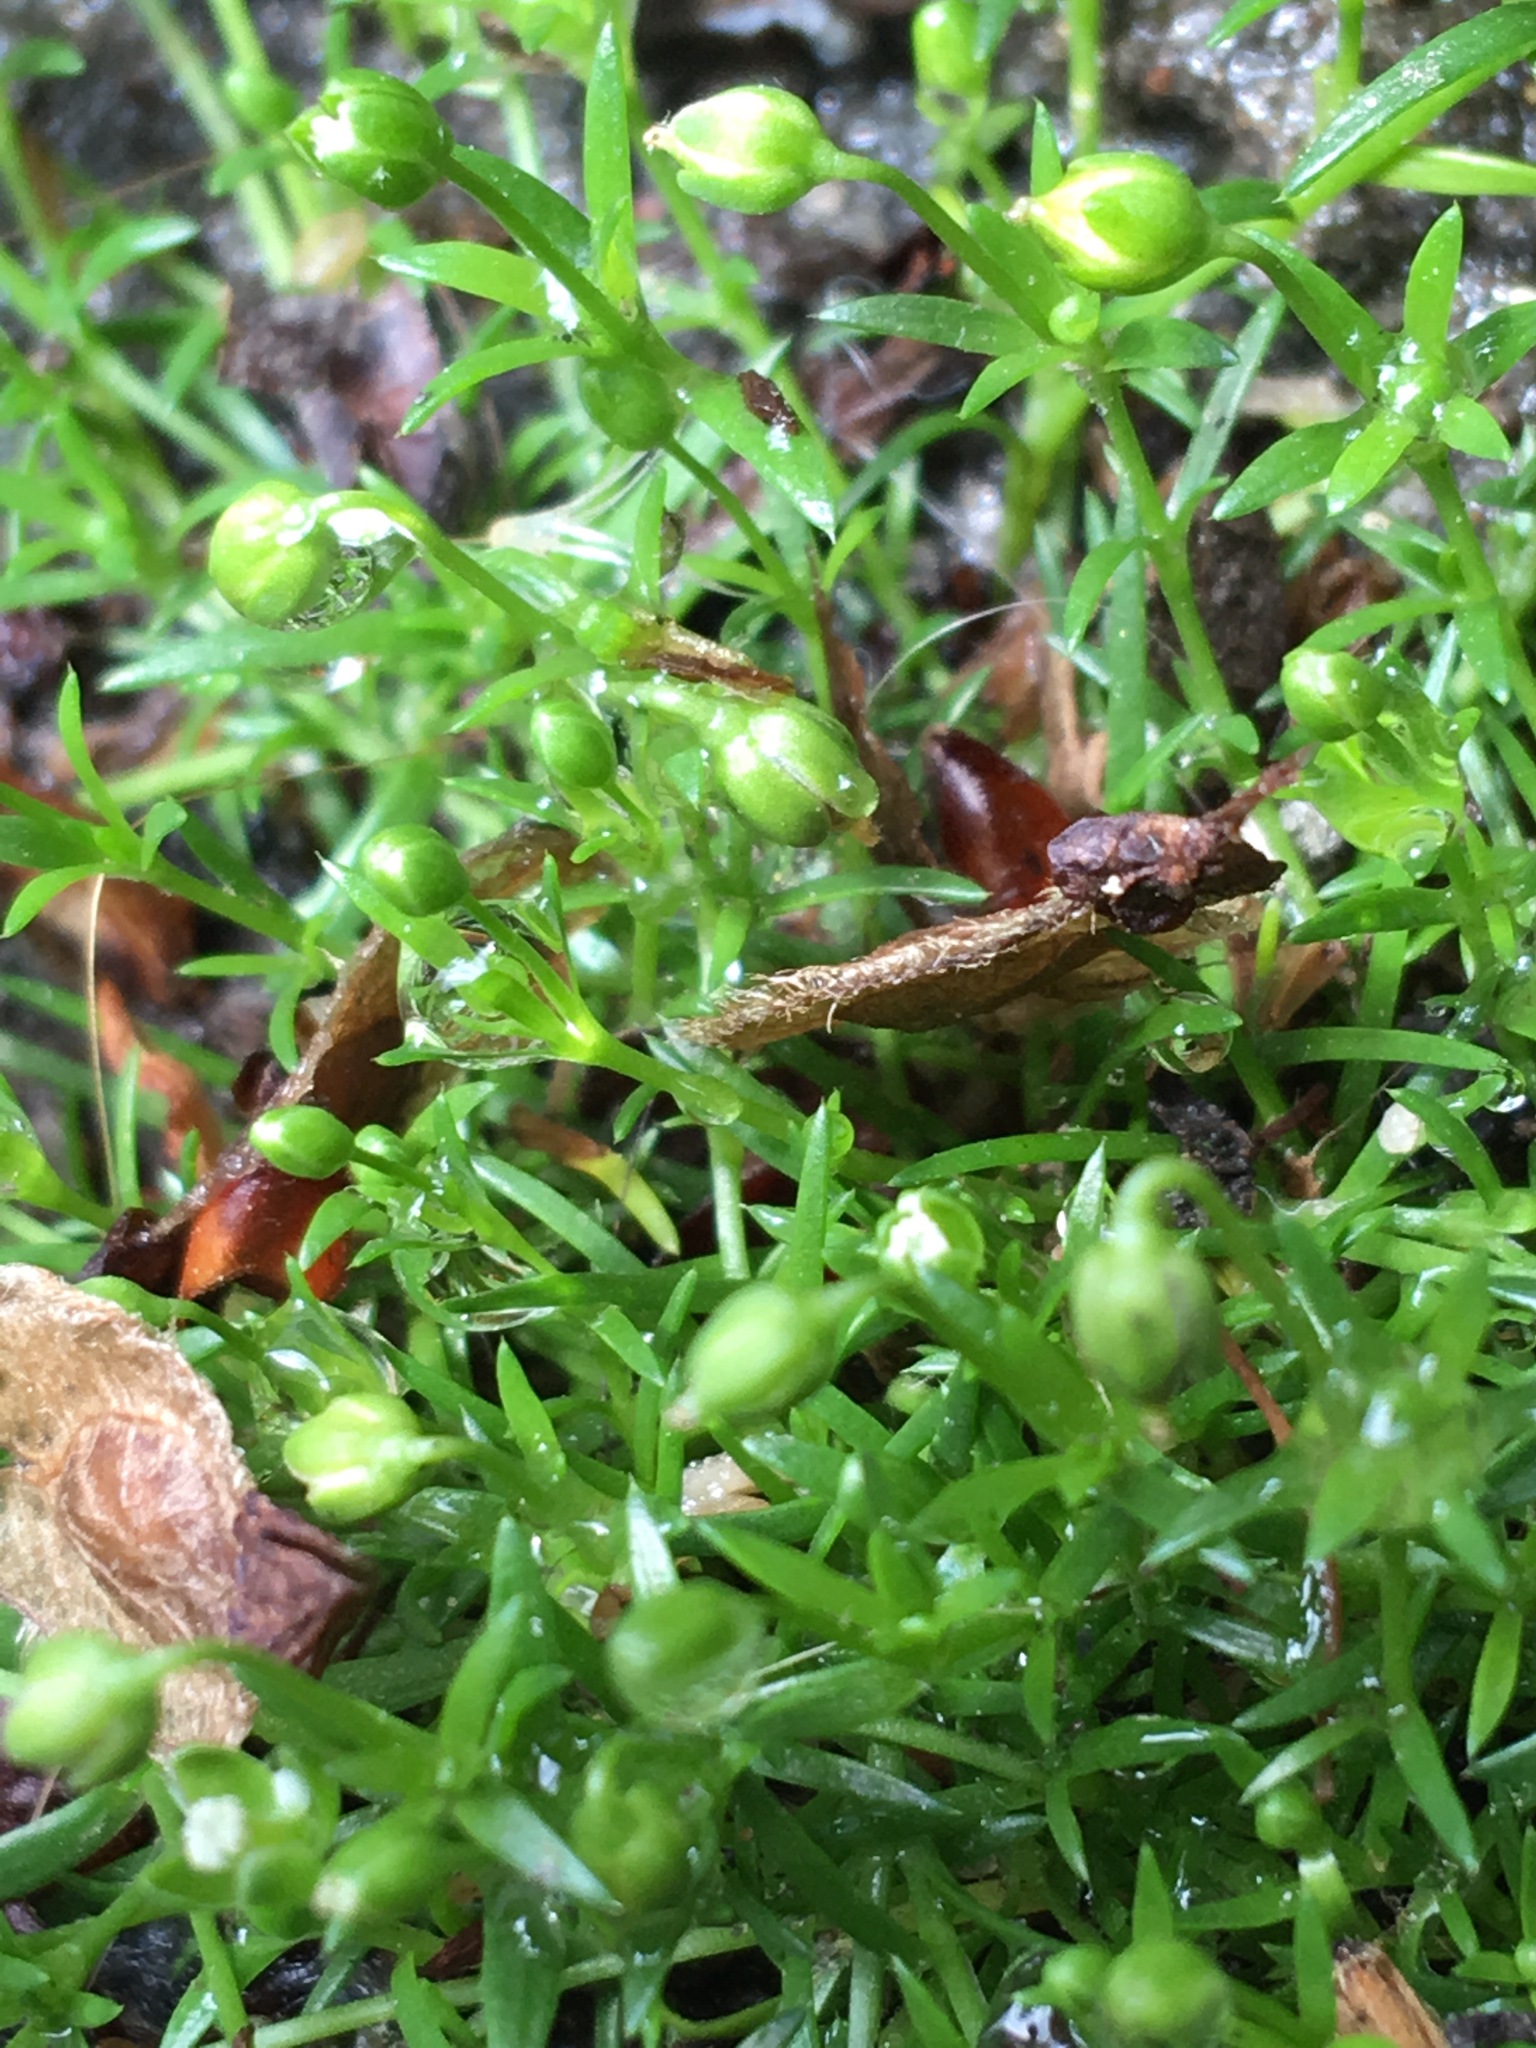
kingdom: Plantae
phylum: Tracheophyta
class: Magnoliopsida
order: Caryophyllales
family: Caryophyllaceae
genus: Sagina
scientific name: Sagina procumbens
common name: Procumbent pearlwort
